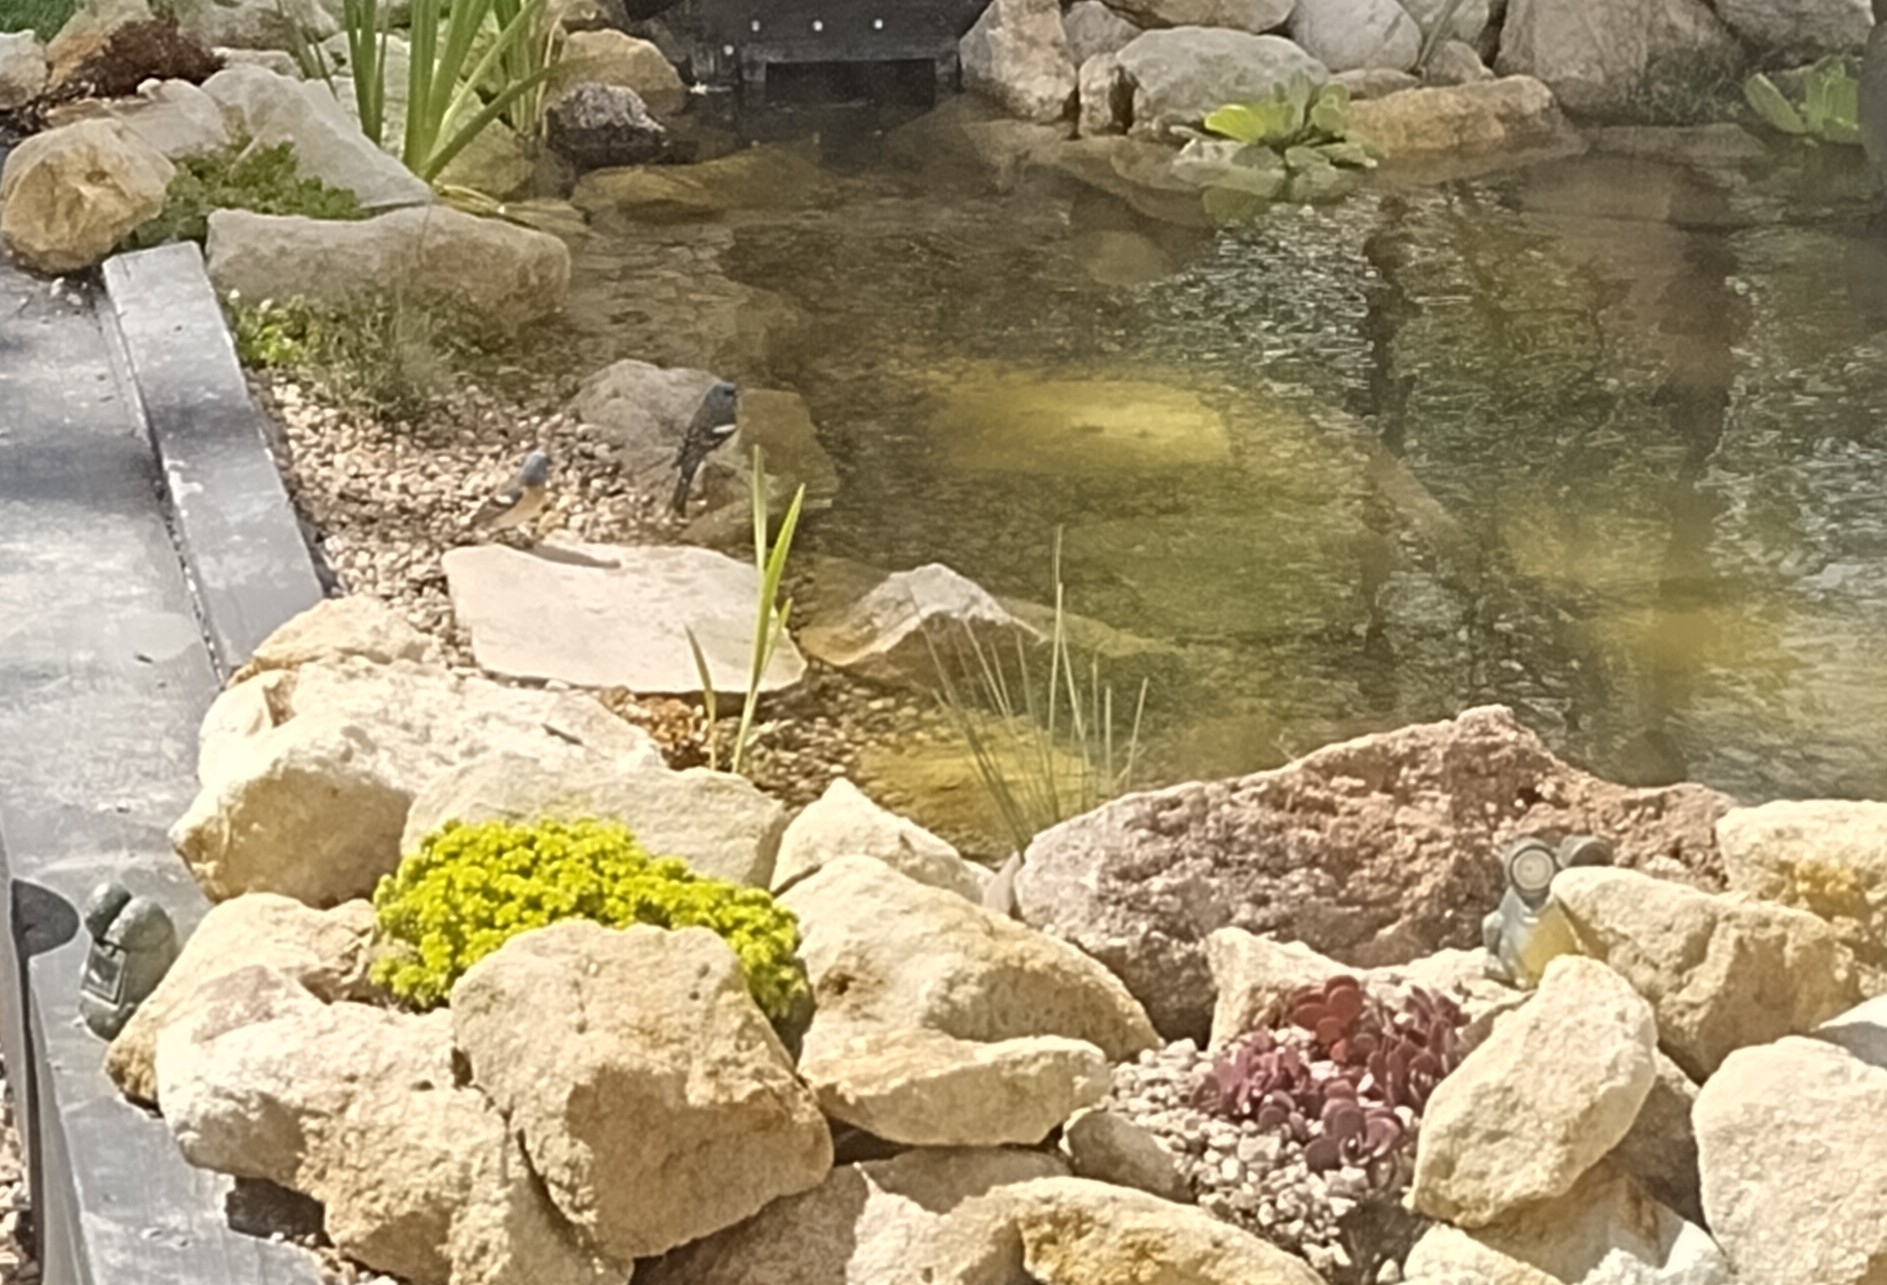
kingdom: Animalia
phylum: Chordata
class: Aves
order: Passeriformes
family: Cardinalidae
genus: Passerina
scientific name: Passerina amoena
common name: Lazuli bunting
